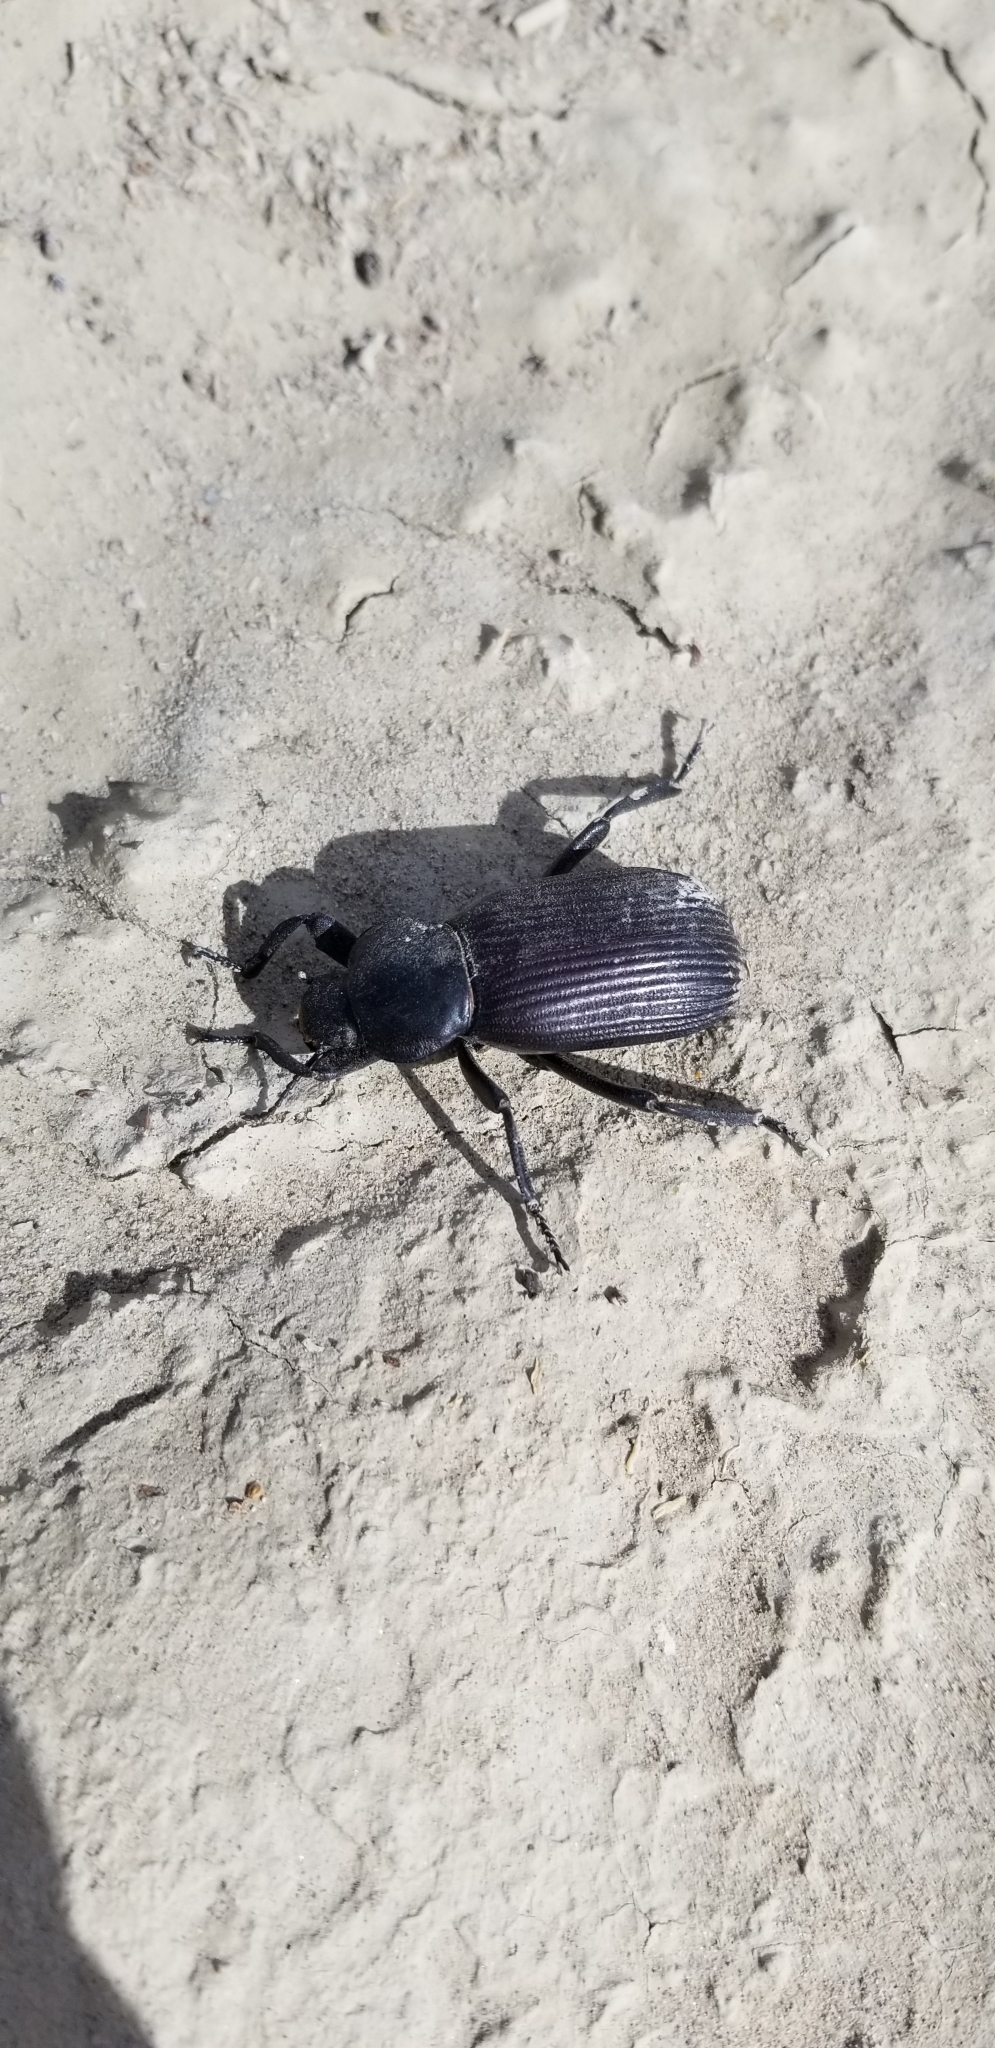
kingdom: Animalia
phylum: Arthropoda
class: Insecta
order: Coleoptera
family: Tenebrionidae
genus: Eleodes
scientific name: Eleodes obscura
